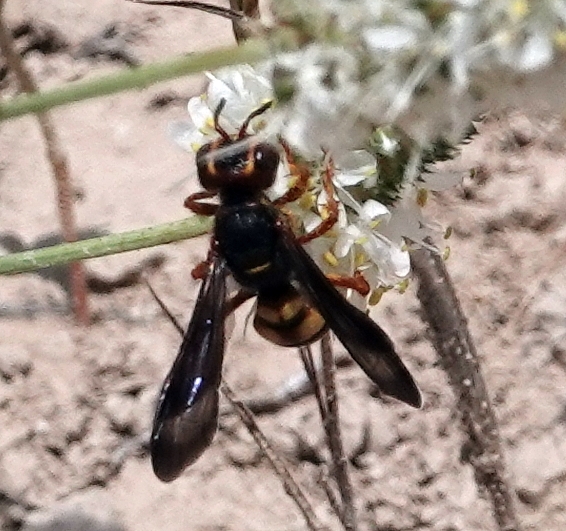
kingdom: Animalia
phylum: Arthropoda
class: Insecta
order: Hymenoptera
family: Crabronidae
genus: Cerceris
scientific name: Cerceris bicornuta
